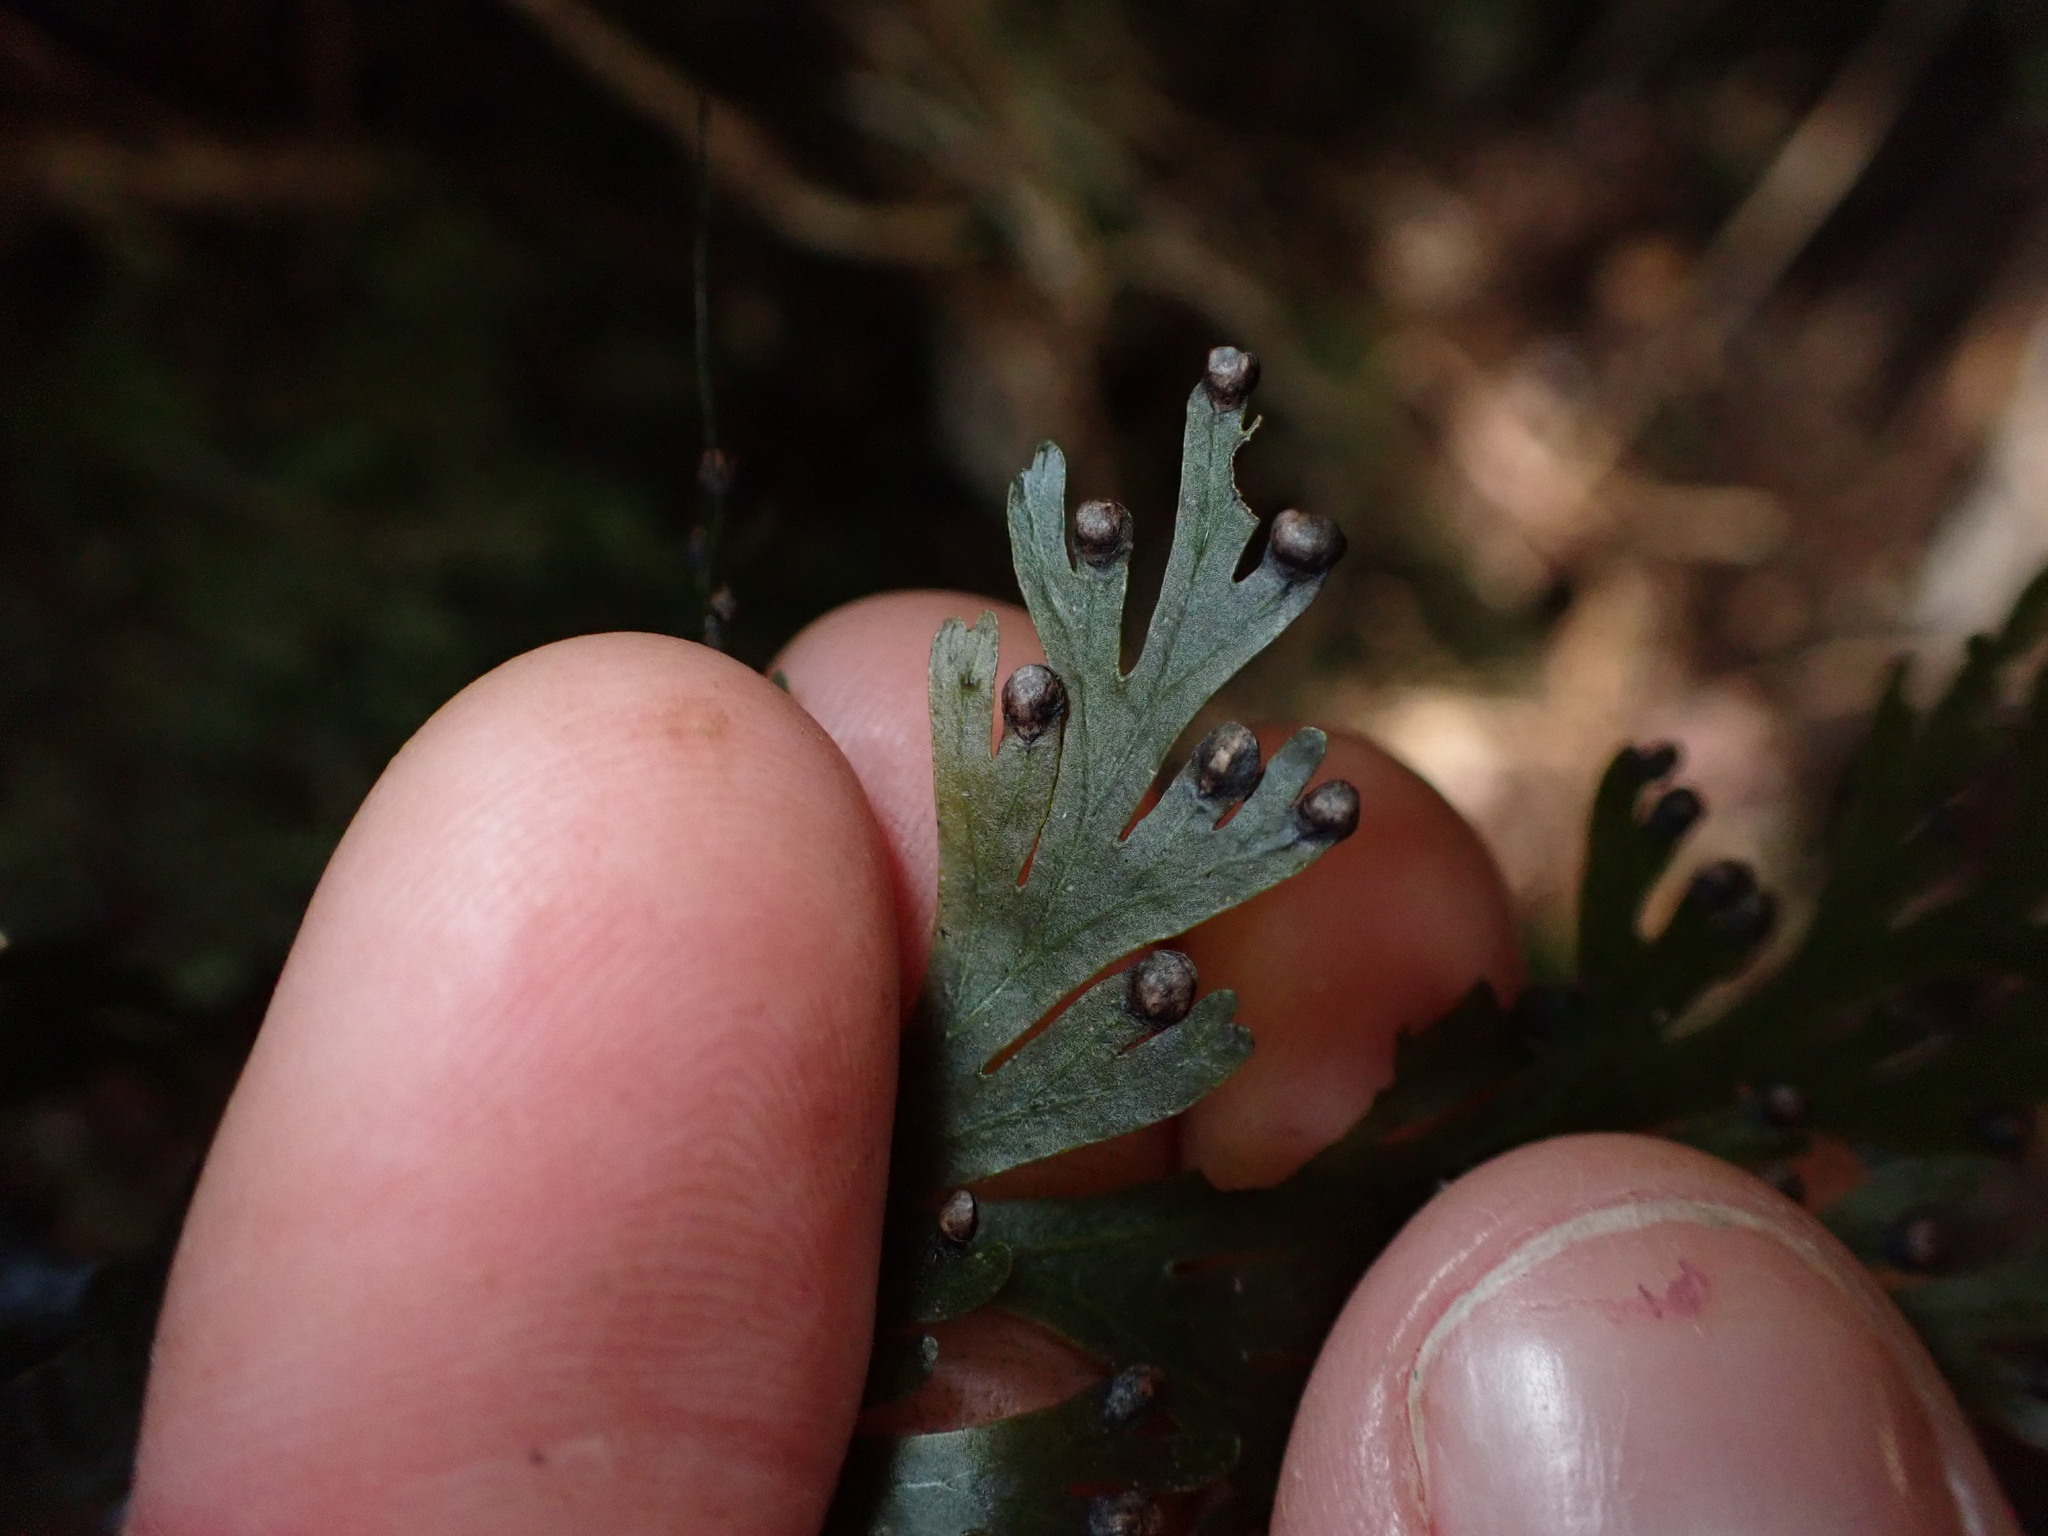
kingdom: Plantae
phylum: Tracheophyta
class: Polypodiopsida
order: Hymenophyllales
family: Hymenophyllaceae
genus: Hymenophyllum
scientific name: Hymenophyllum dilatatum
